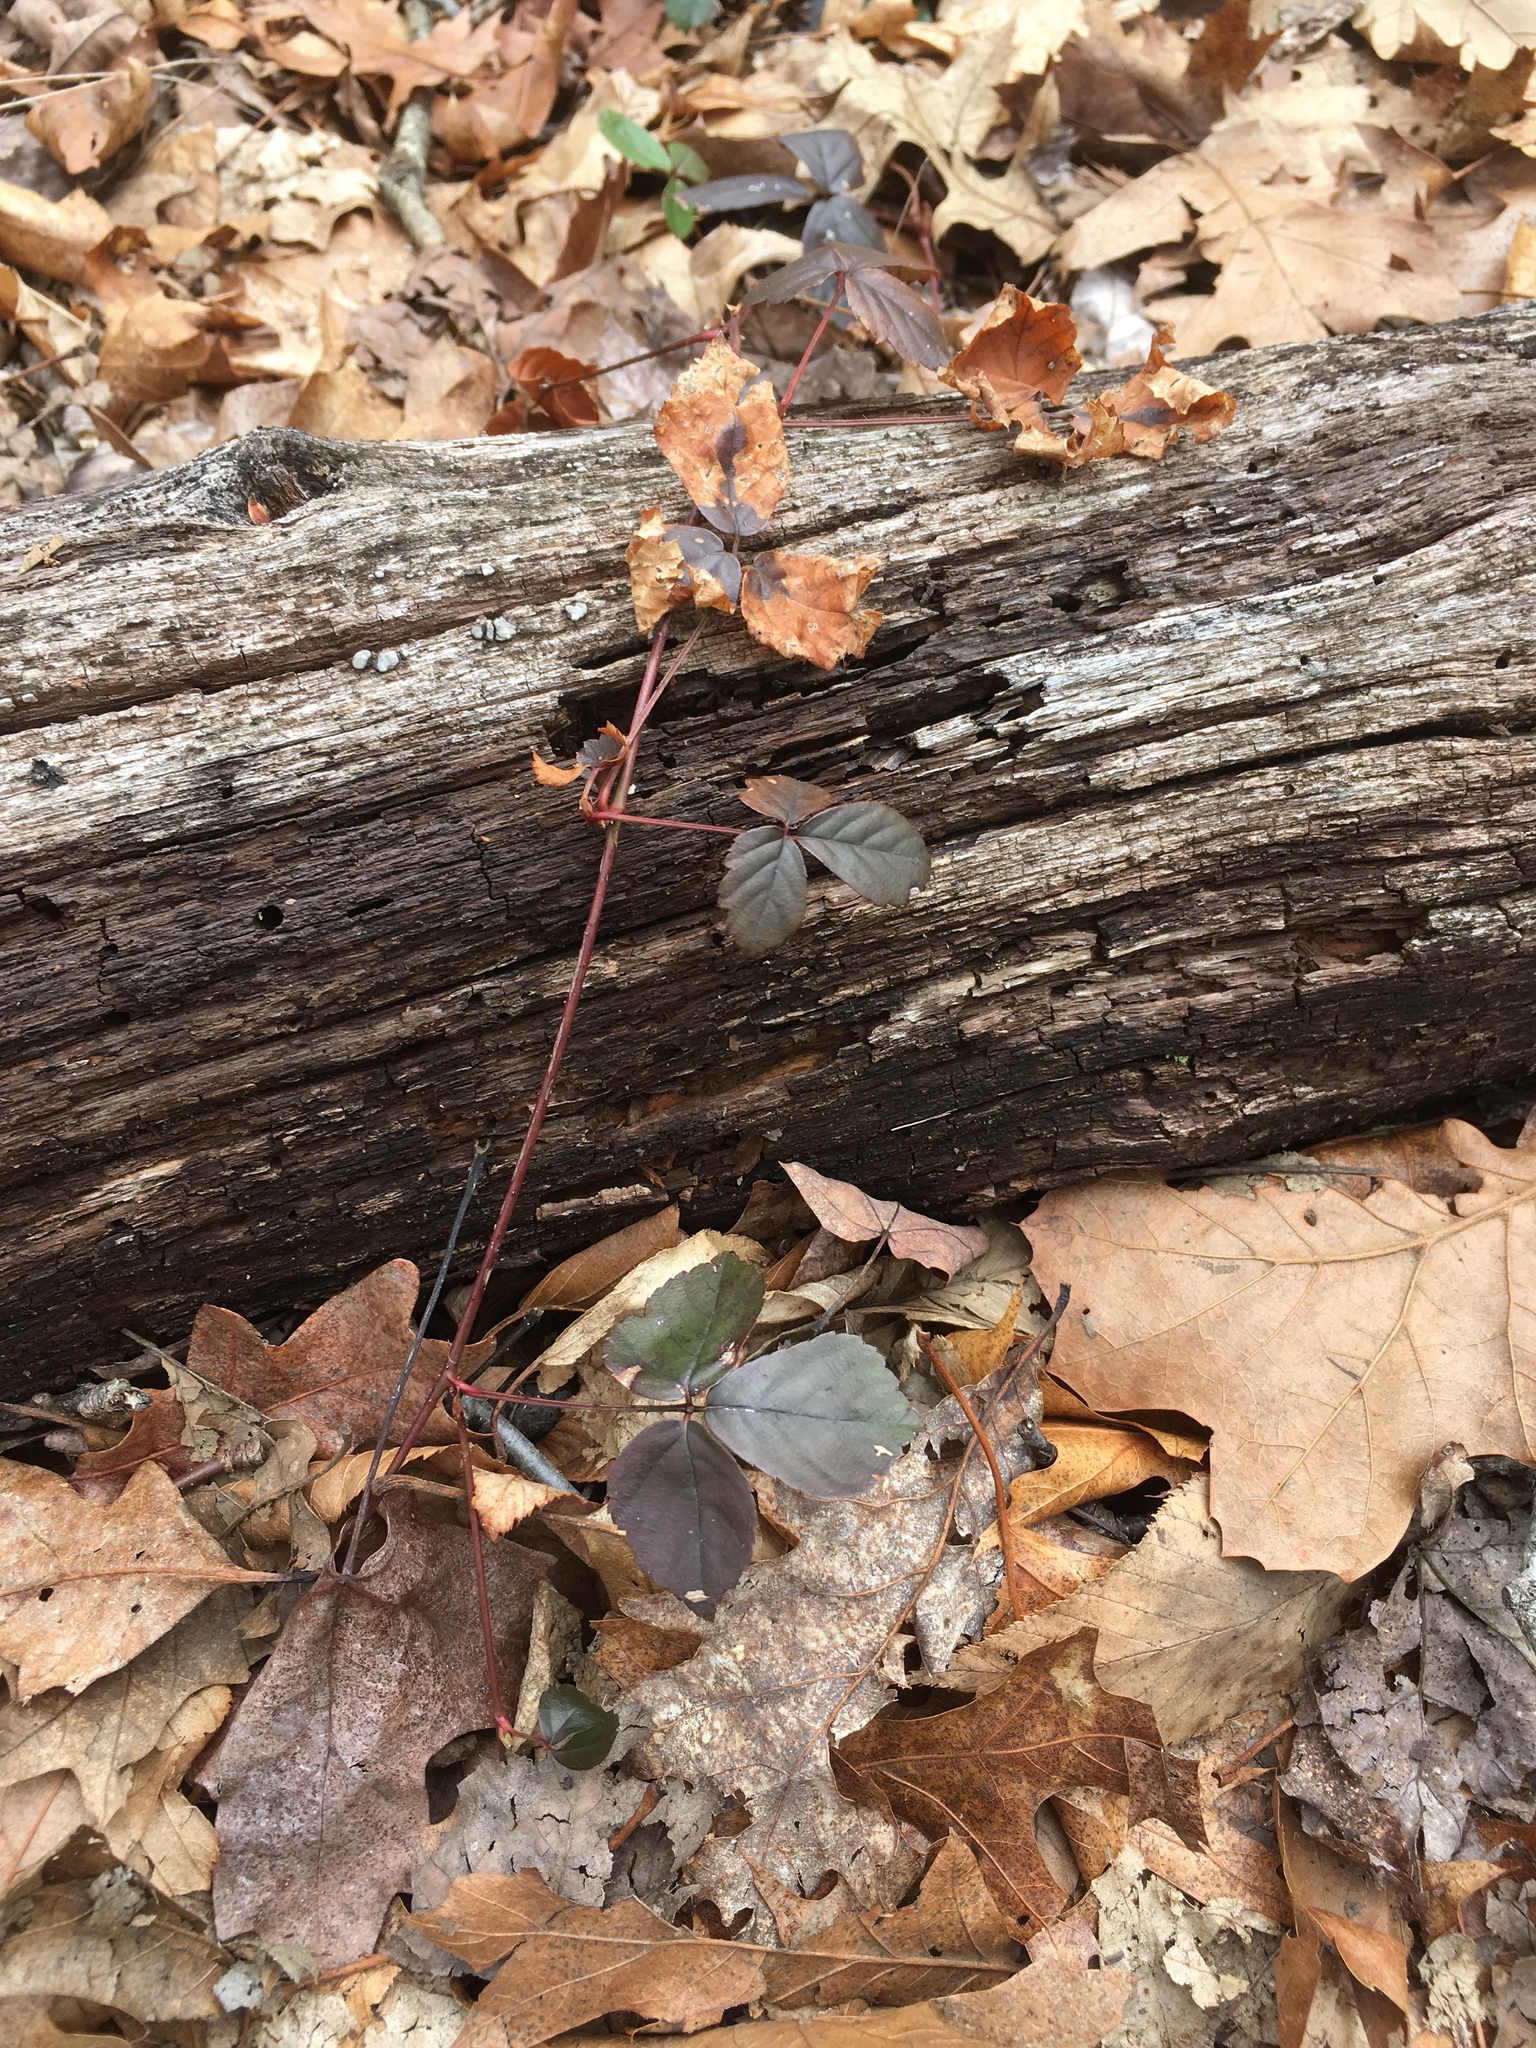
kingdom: Plantae
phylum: Tracheophyta
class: Magnoliopsida
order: Rosales
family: Rosaceae
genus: Rubus
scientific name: Rubus flagellaris
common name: American dewberry
